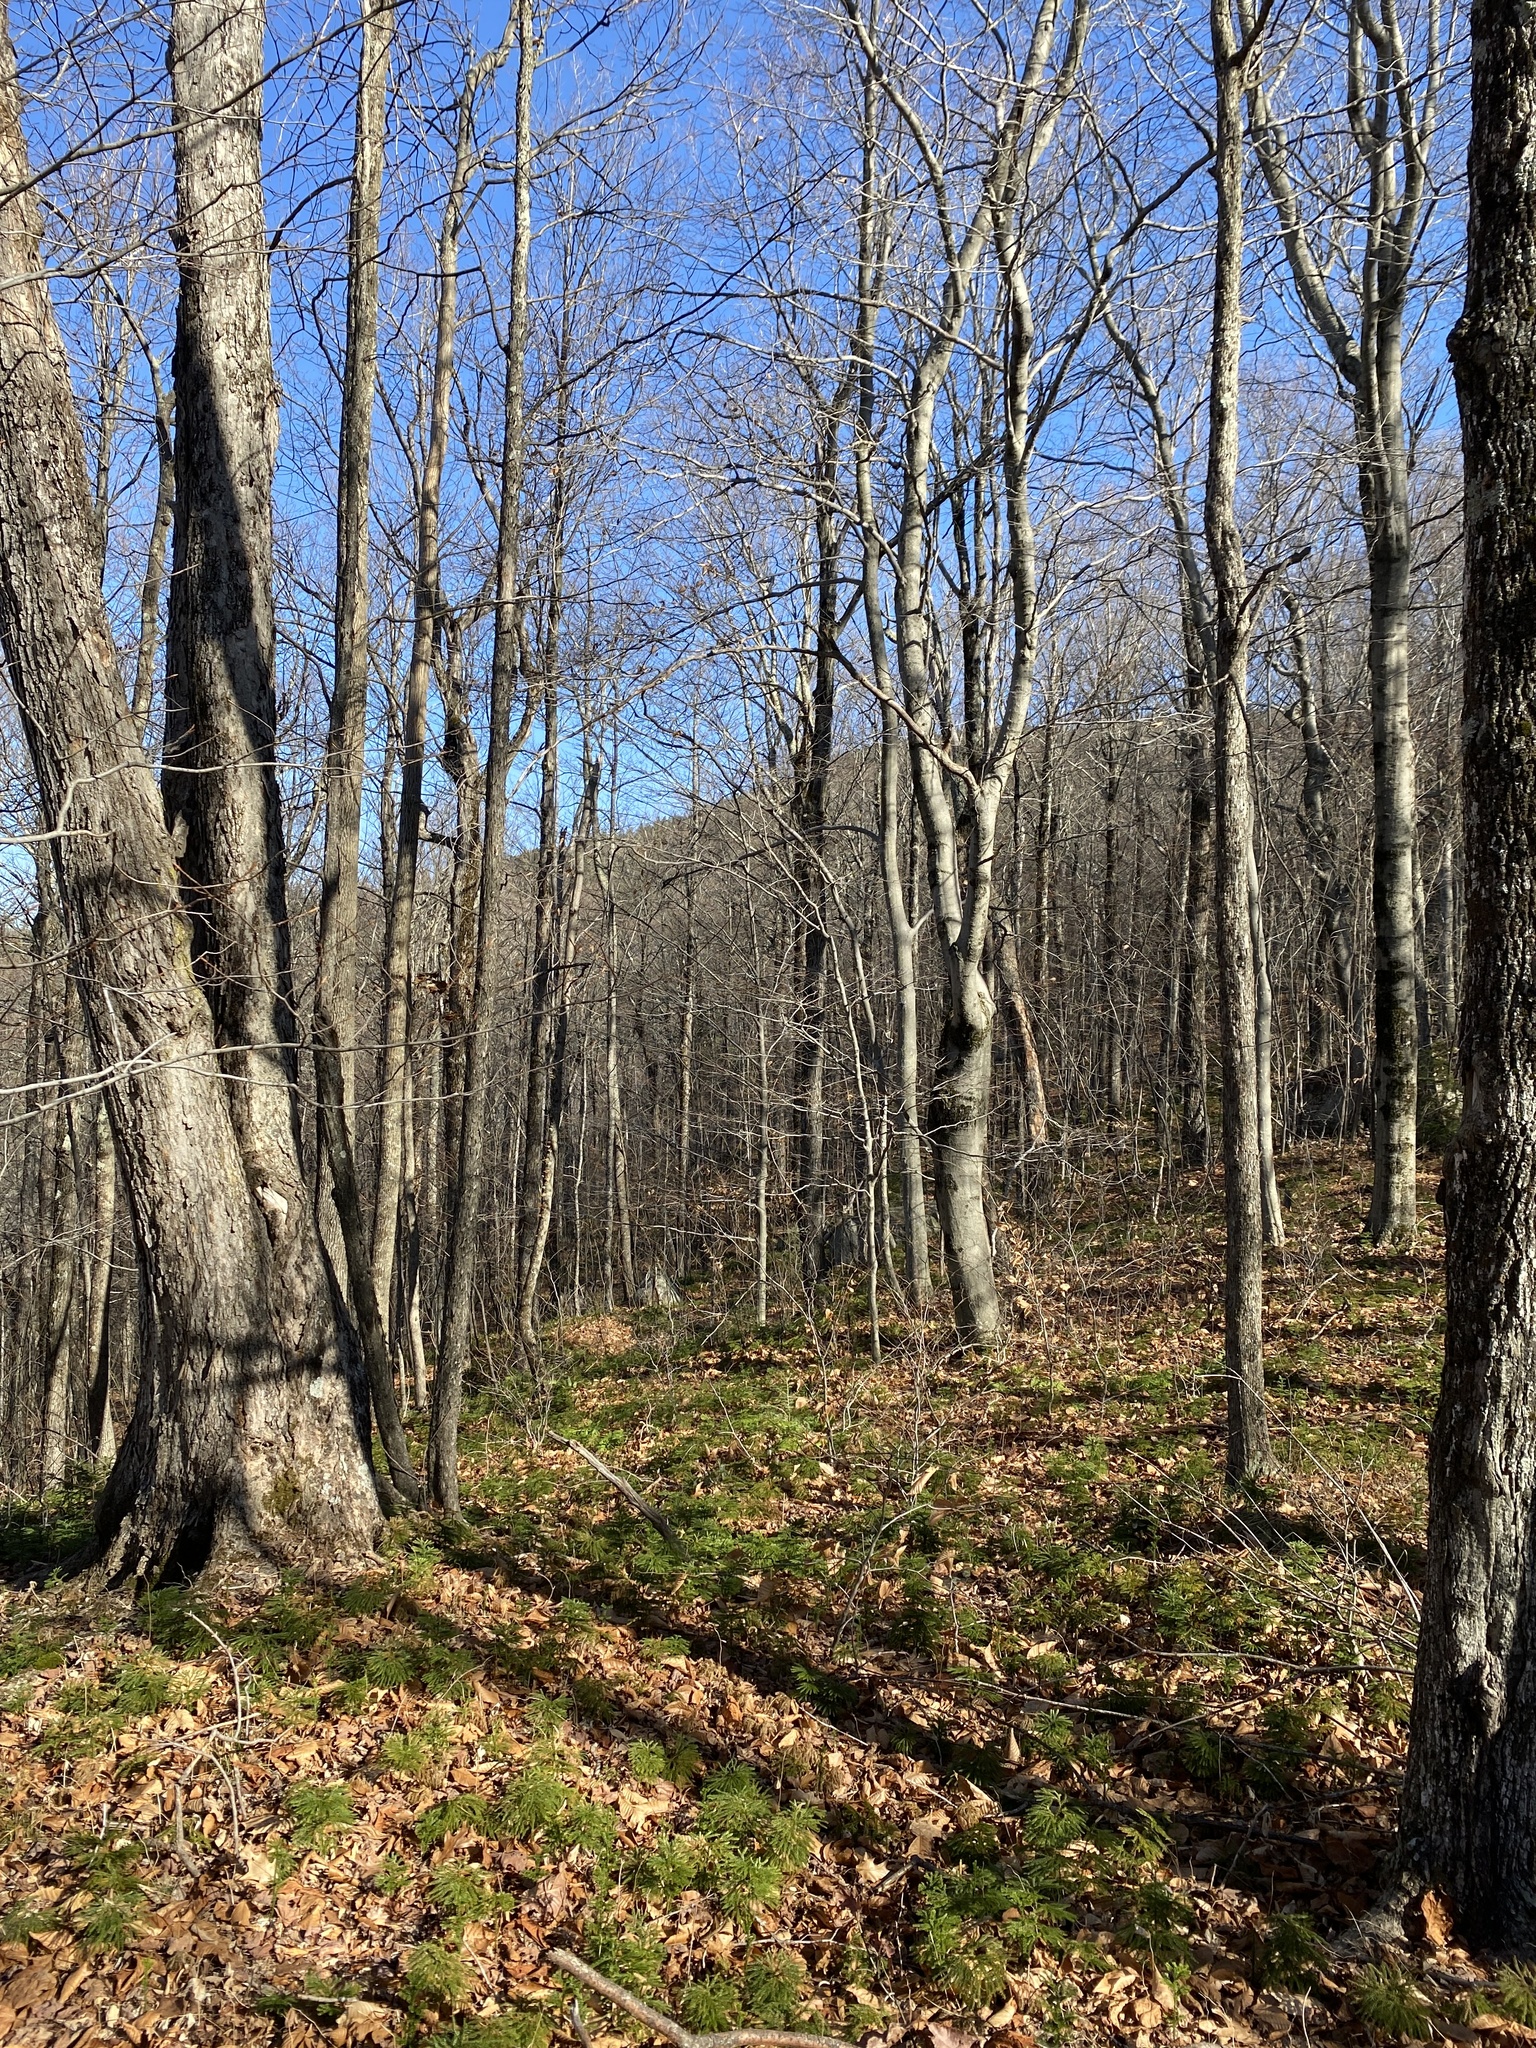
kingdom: Plantae
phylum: Tracheophyta
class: Magnoliopsida
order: Fagales
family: Fagaceae
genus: Fagus
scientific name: Fagus grandifolia
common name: American beech
